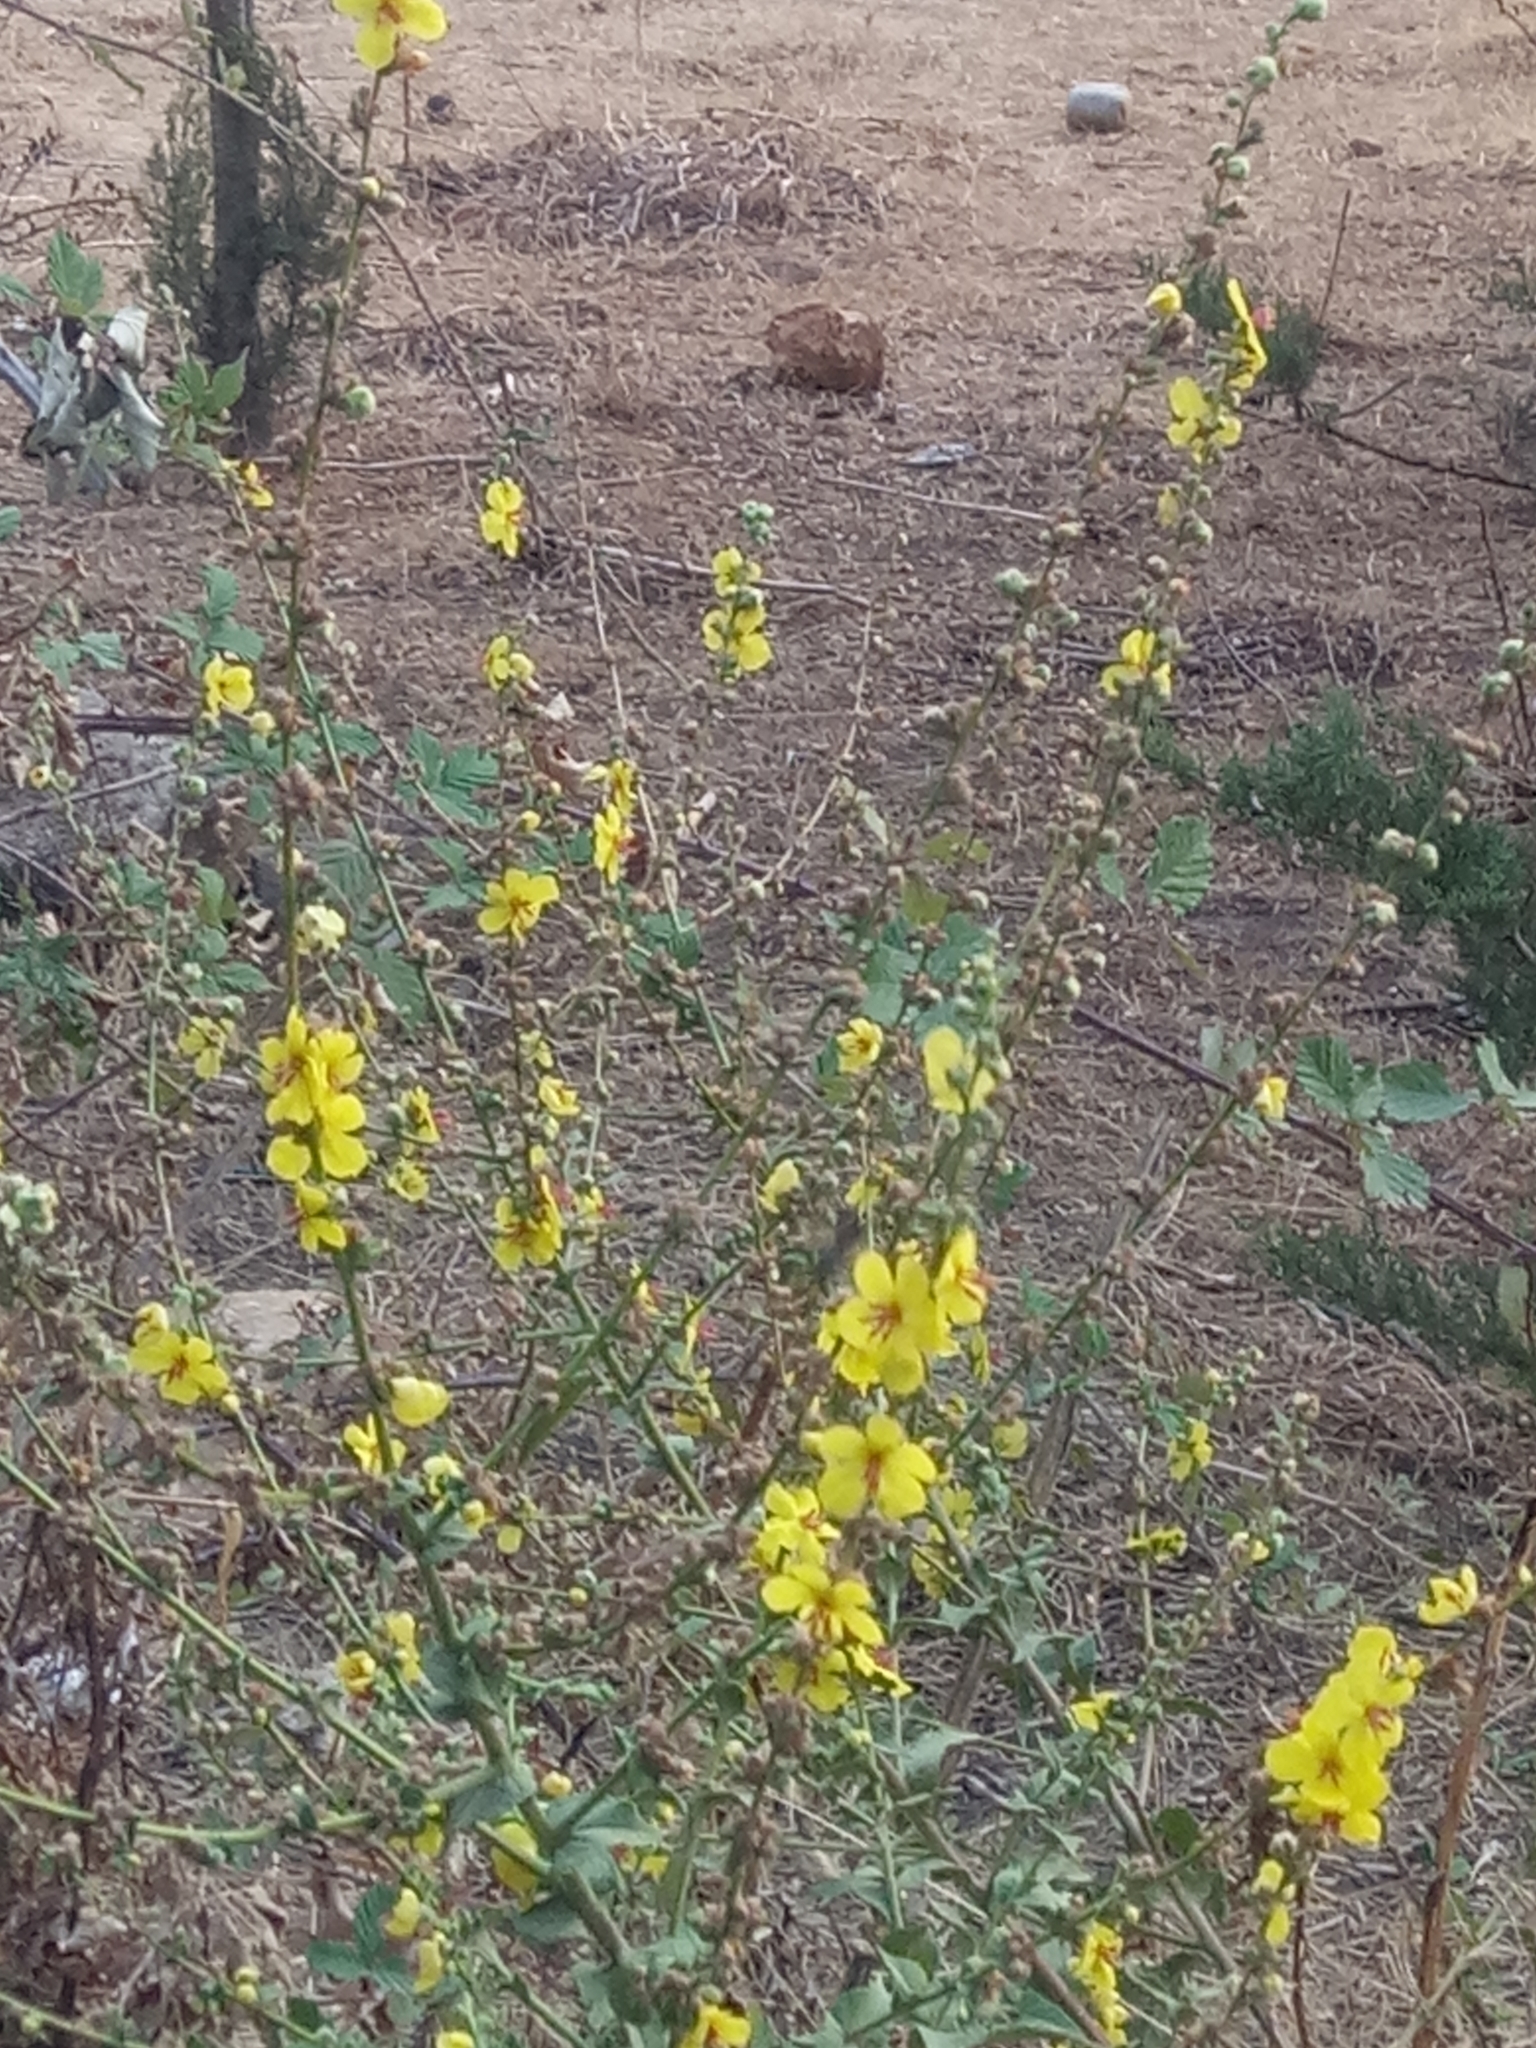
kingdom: Plantae
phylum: Tracheophyta
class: Magnoliopsida
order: Lamiales
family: Scrophulariaceae
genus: Verbascum
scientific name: Verbascum sinuatum
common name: Wavyleaf mullein
